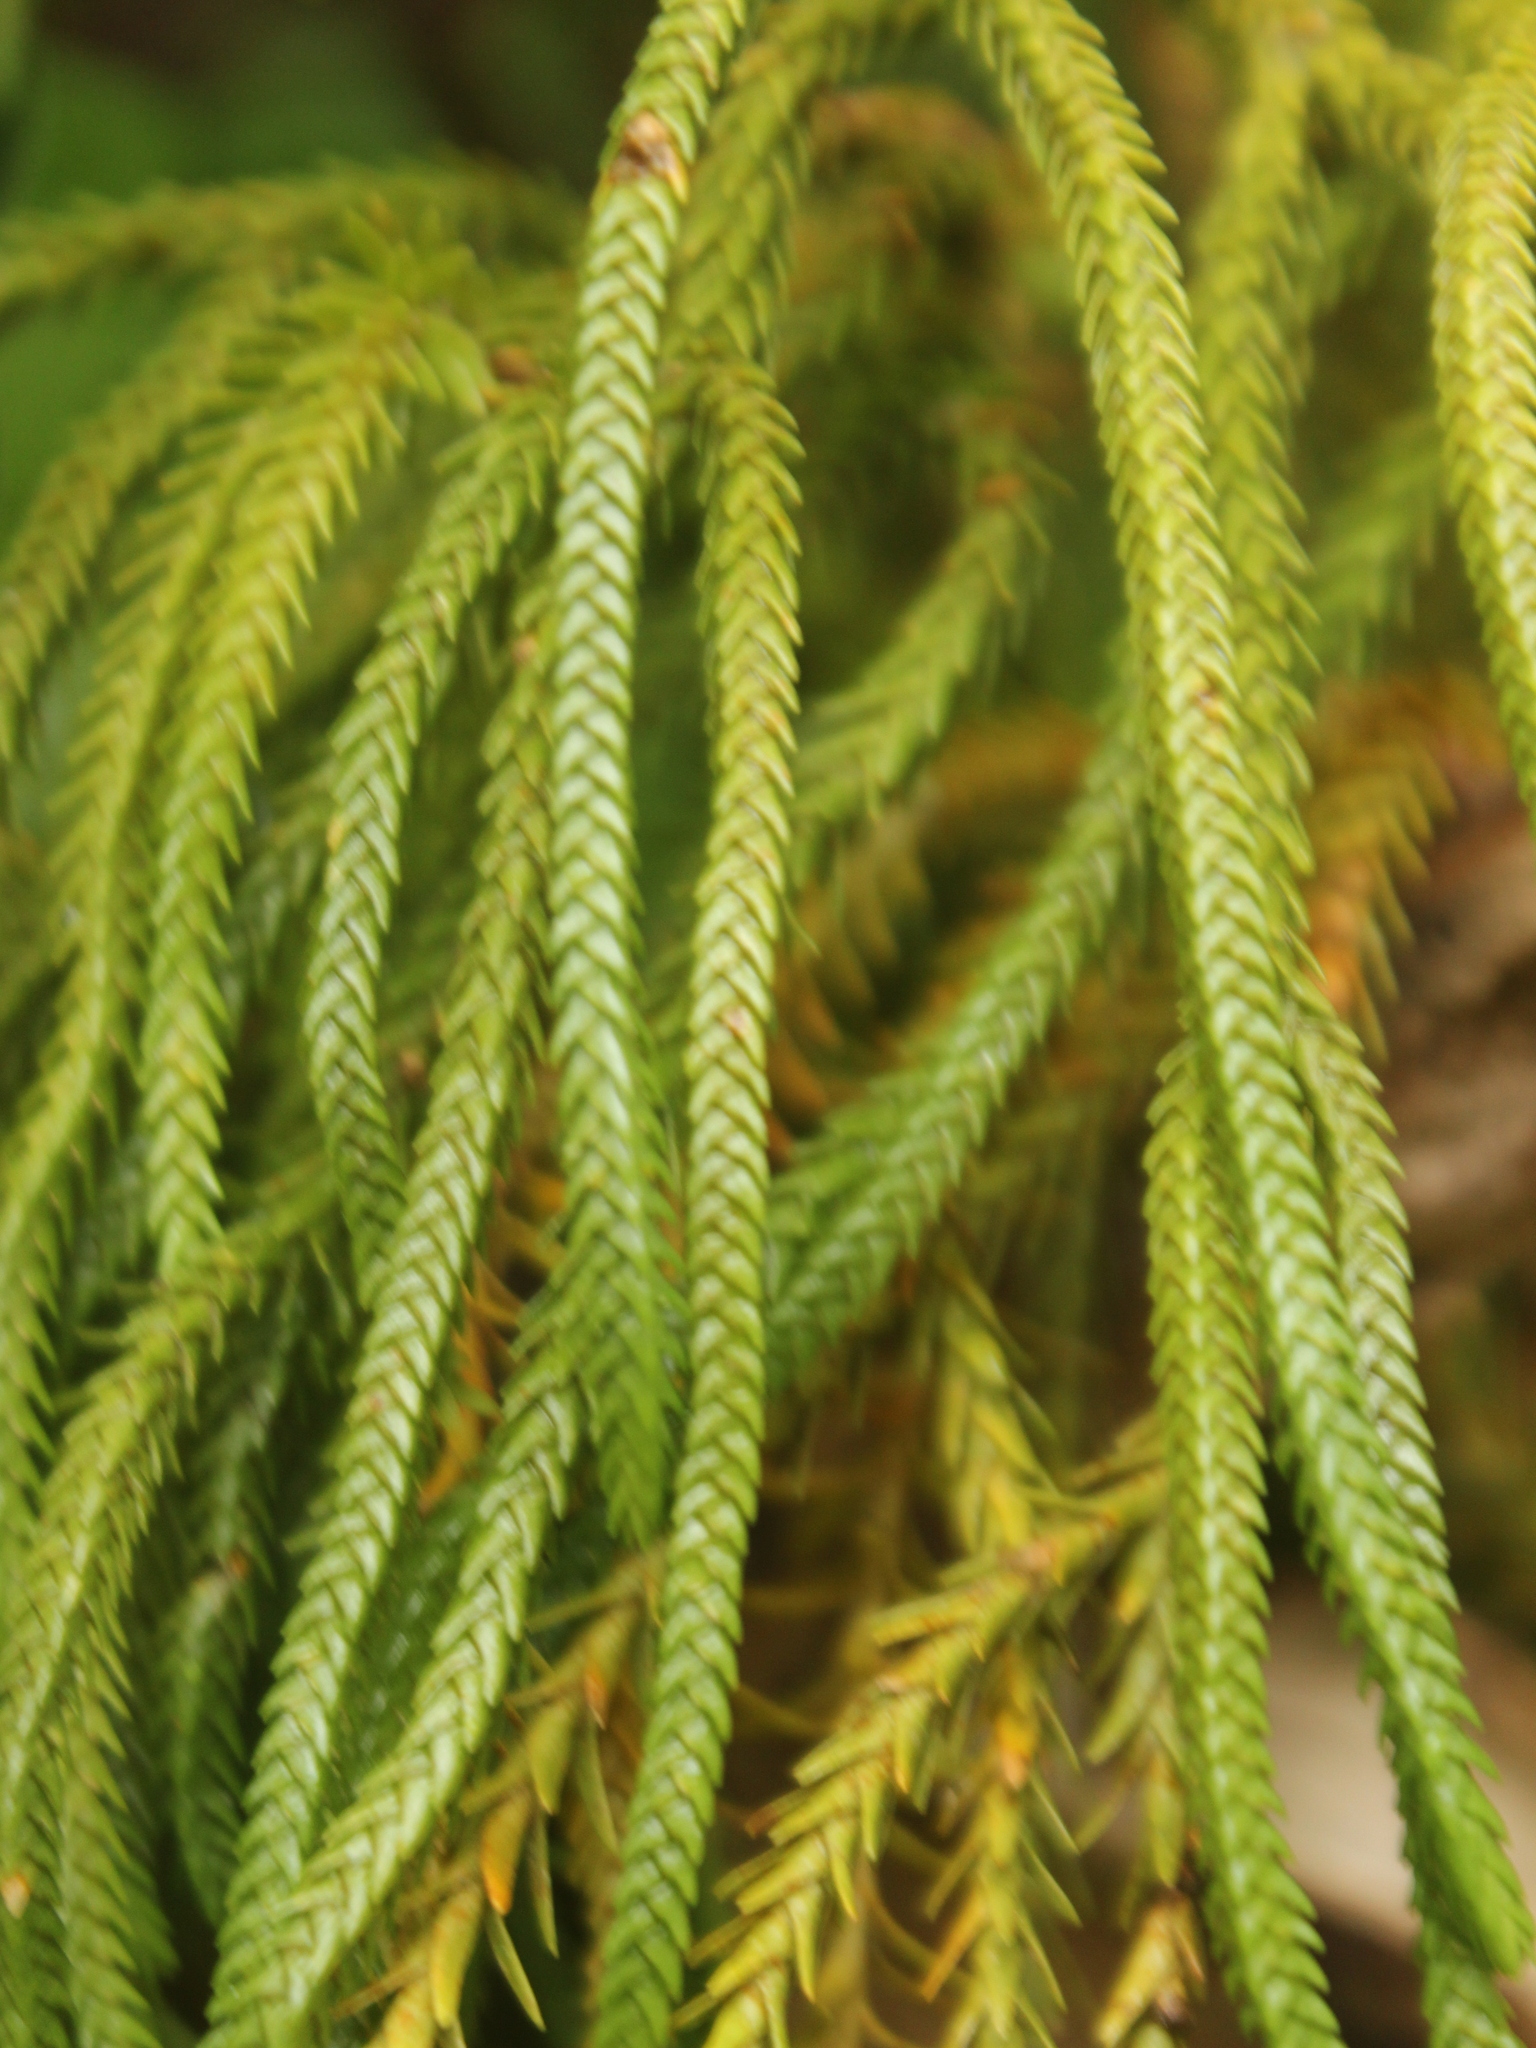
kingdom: Plantae
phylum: Tracheophyta
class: Lycopodiopsida
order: Lycopodiales
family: Lycopodiaceae
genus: Phlegmariurus
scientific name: Phlegmariurus varius
